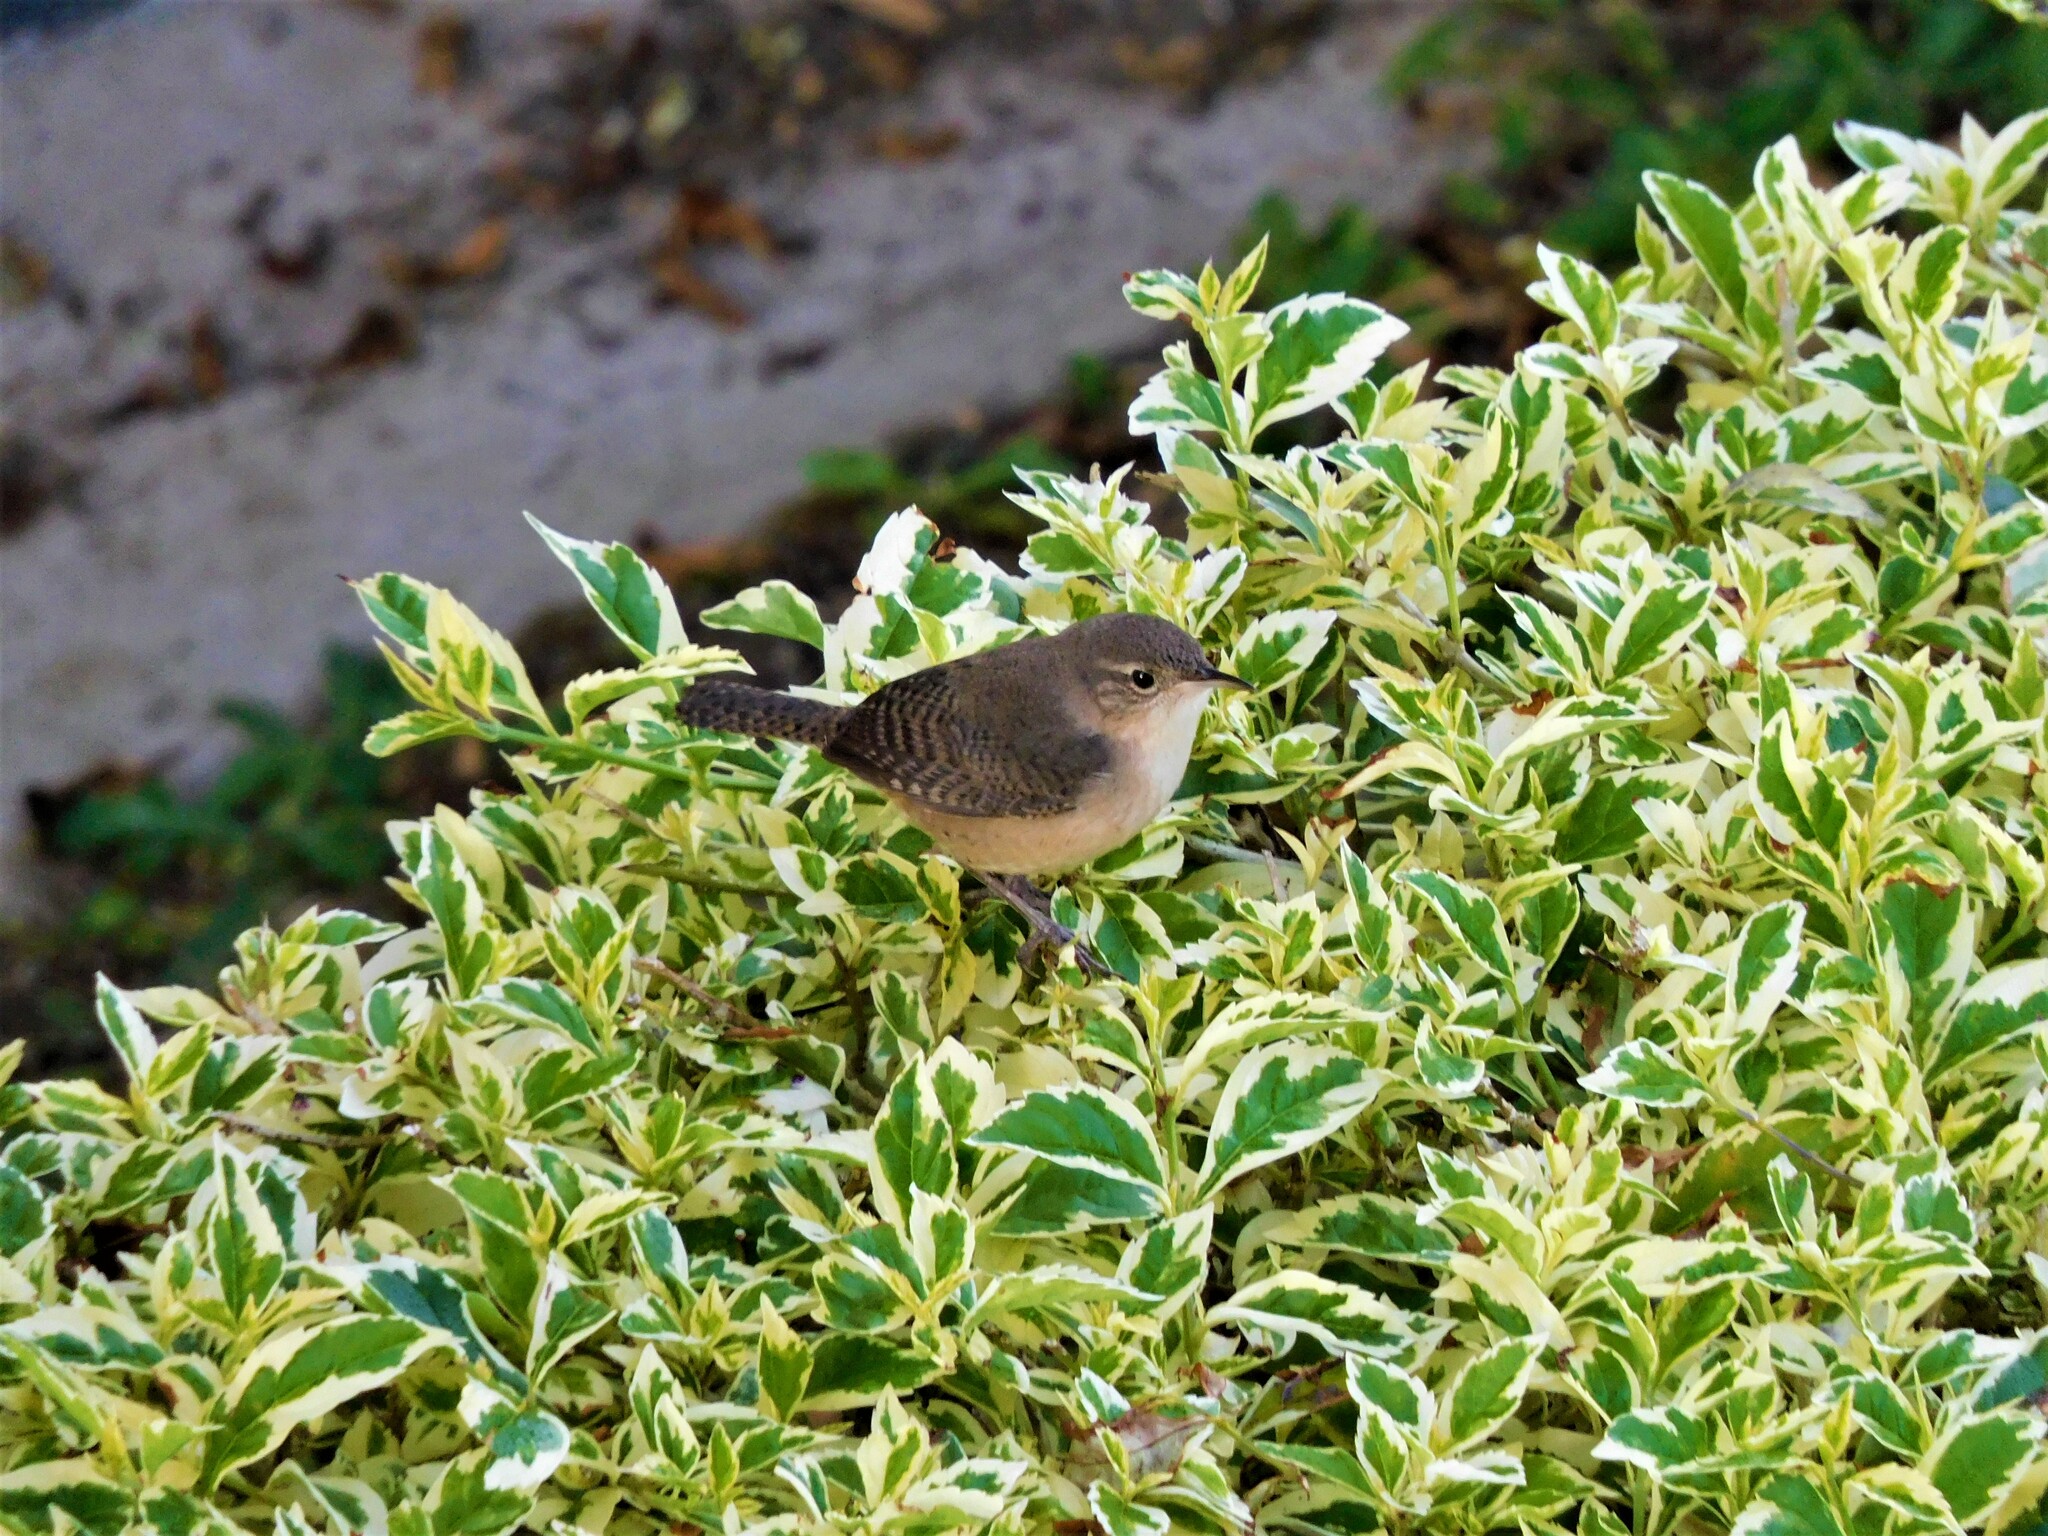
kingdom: Animalia
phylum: Chordata
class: Aves
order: Passeriformes
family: Troglodytidae
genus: Troglodytes
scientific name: Troglodytes aedon
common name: House wren
